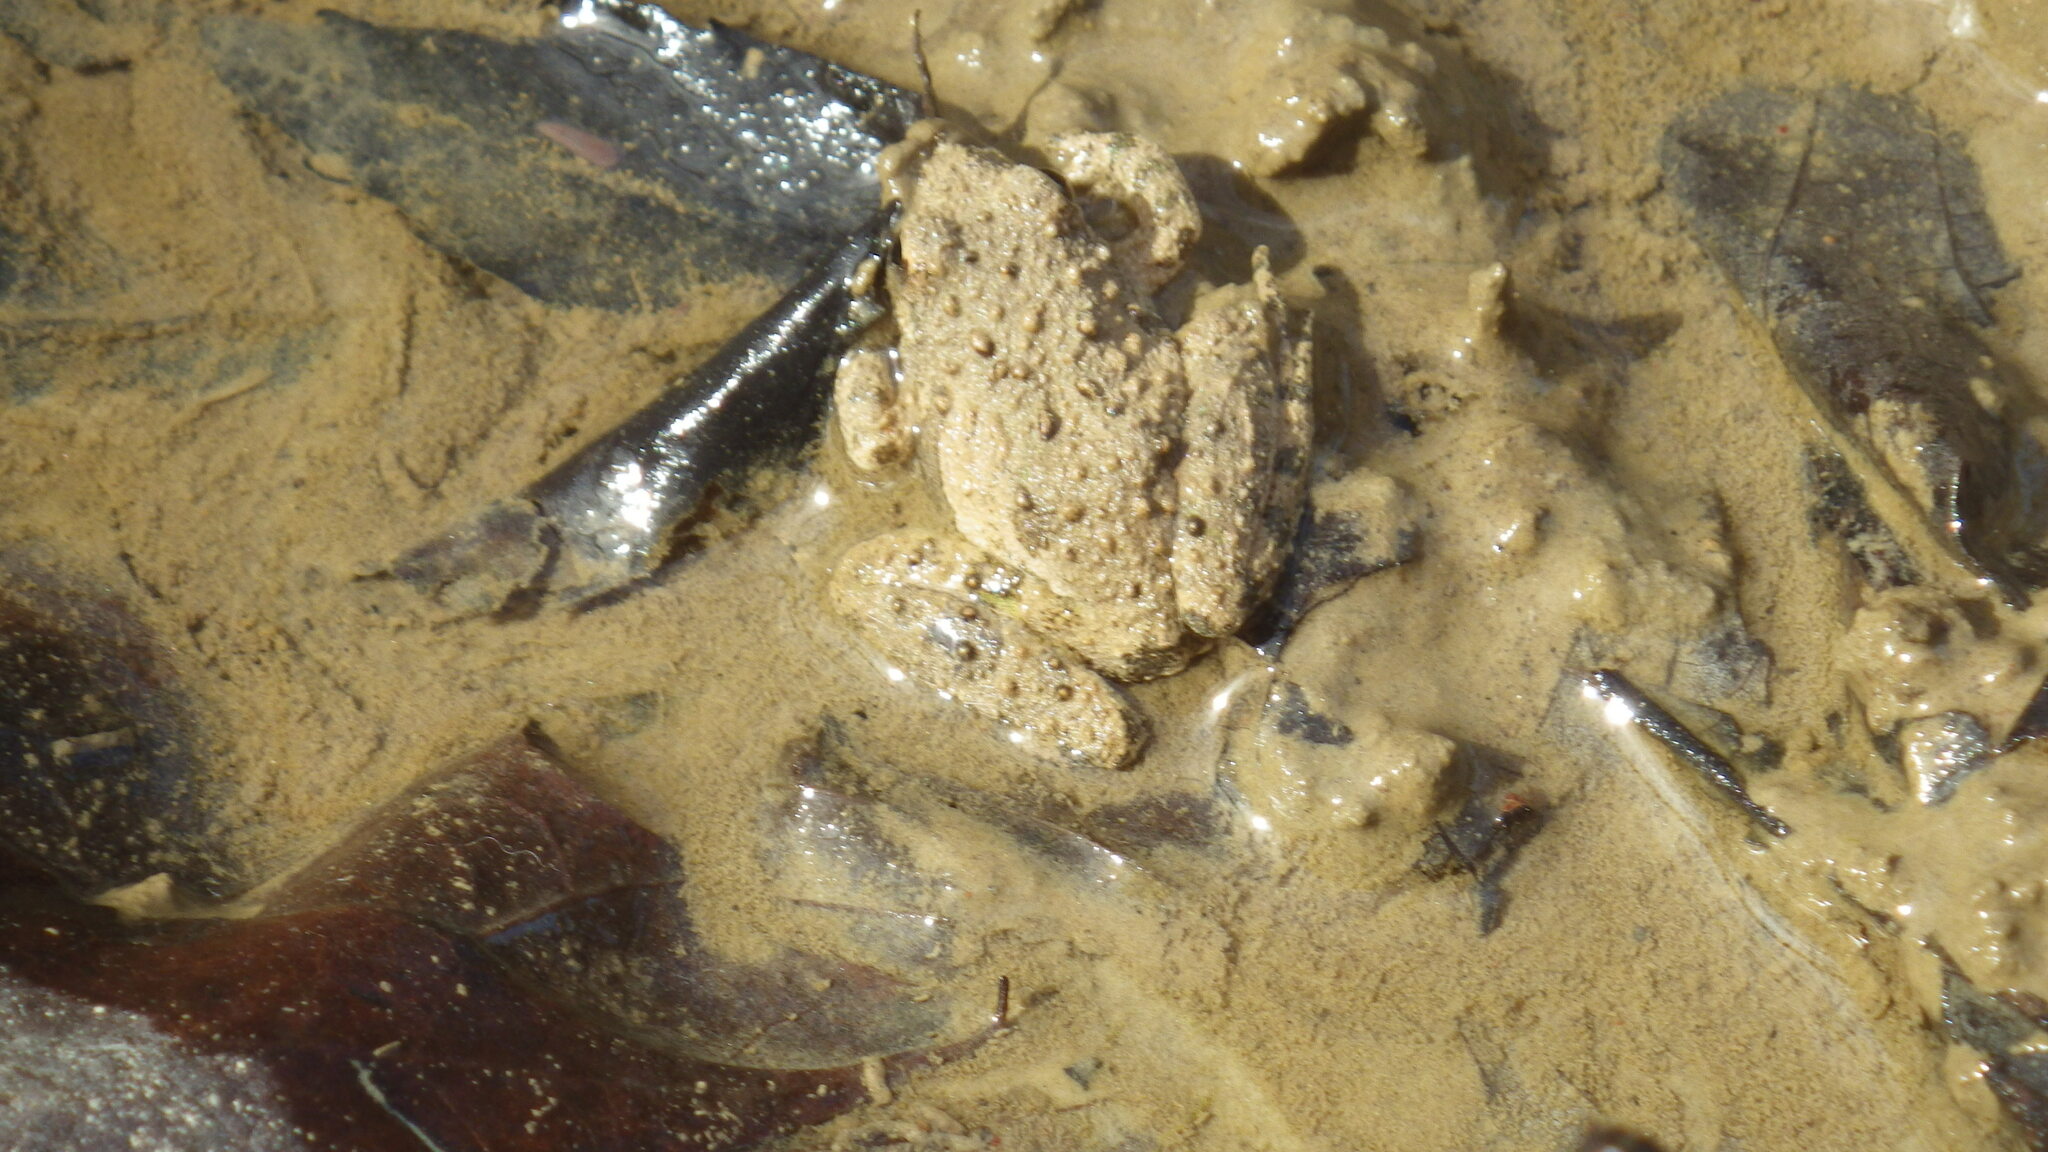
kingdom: Animalia
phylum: Chordata
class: Amphibia
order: Anura
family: Hylidae
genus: Acris
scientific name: Acris blanchardi
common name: Blanchard's cricket frog
